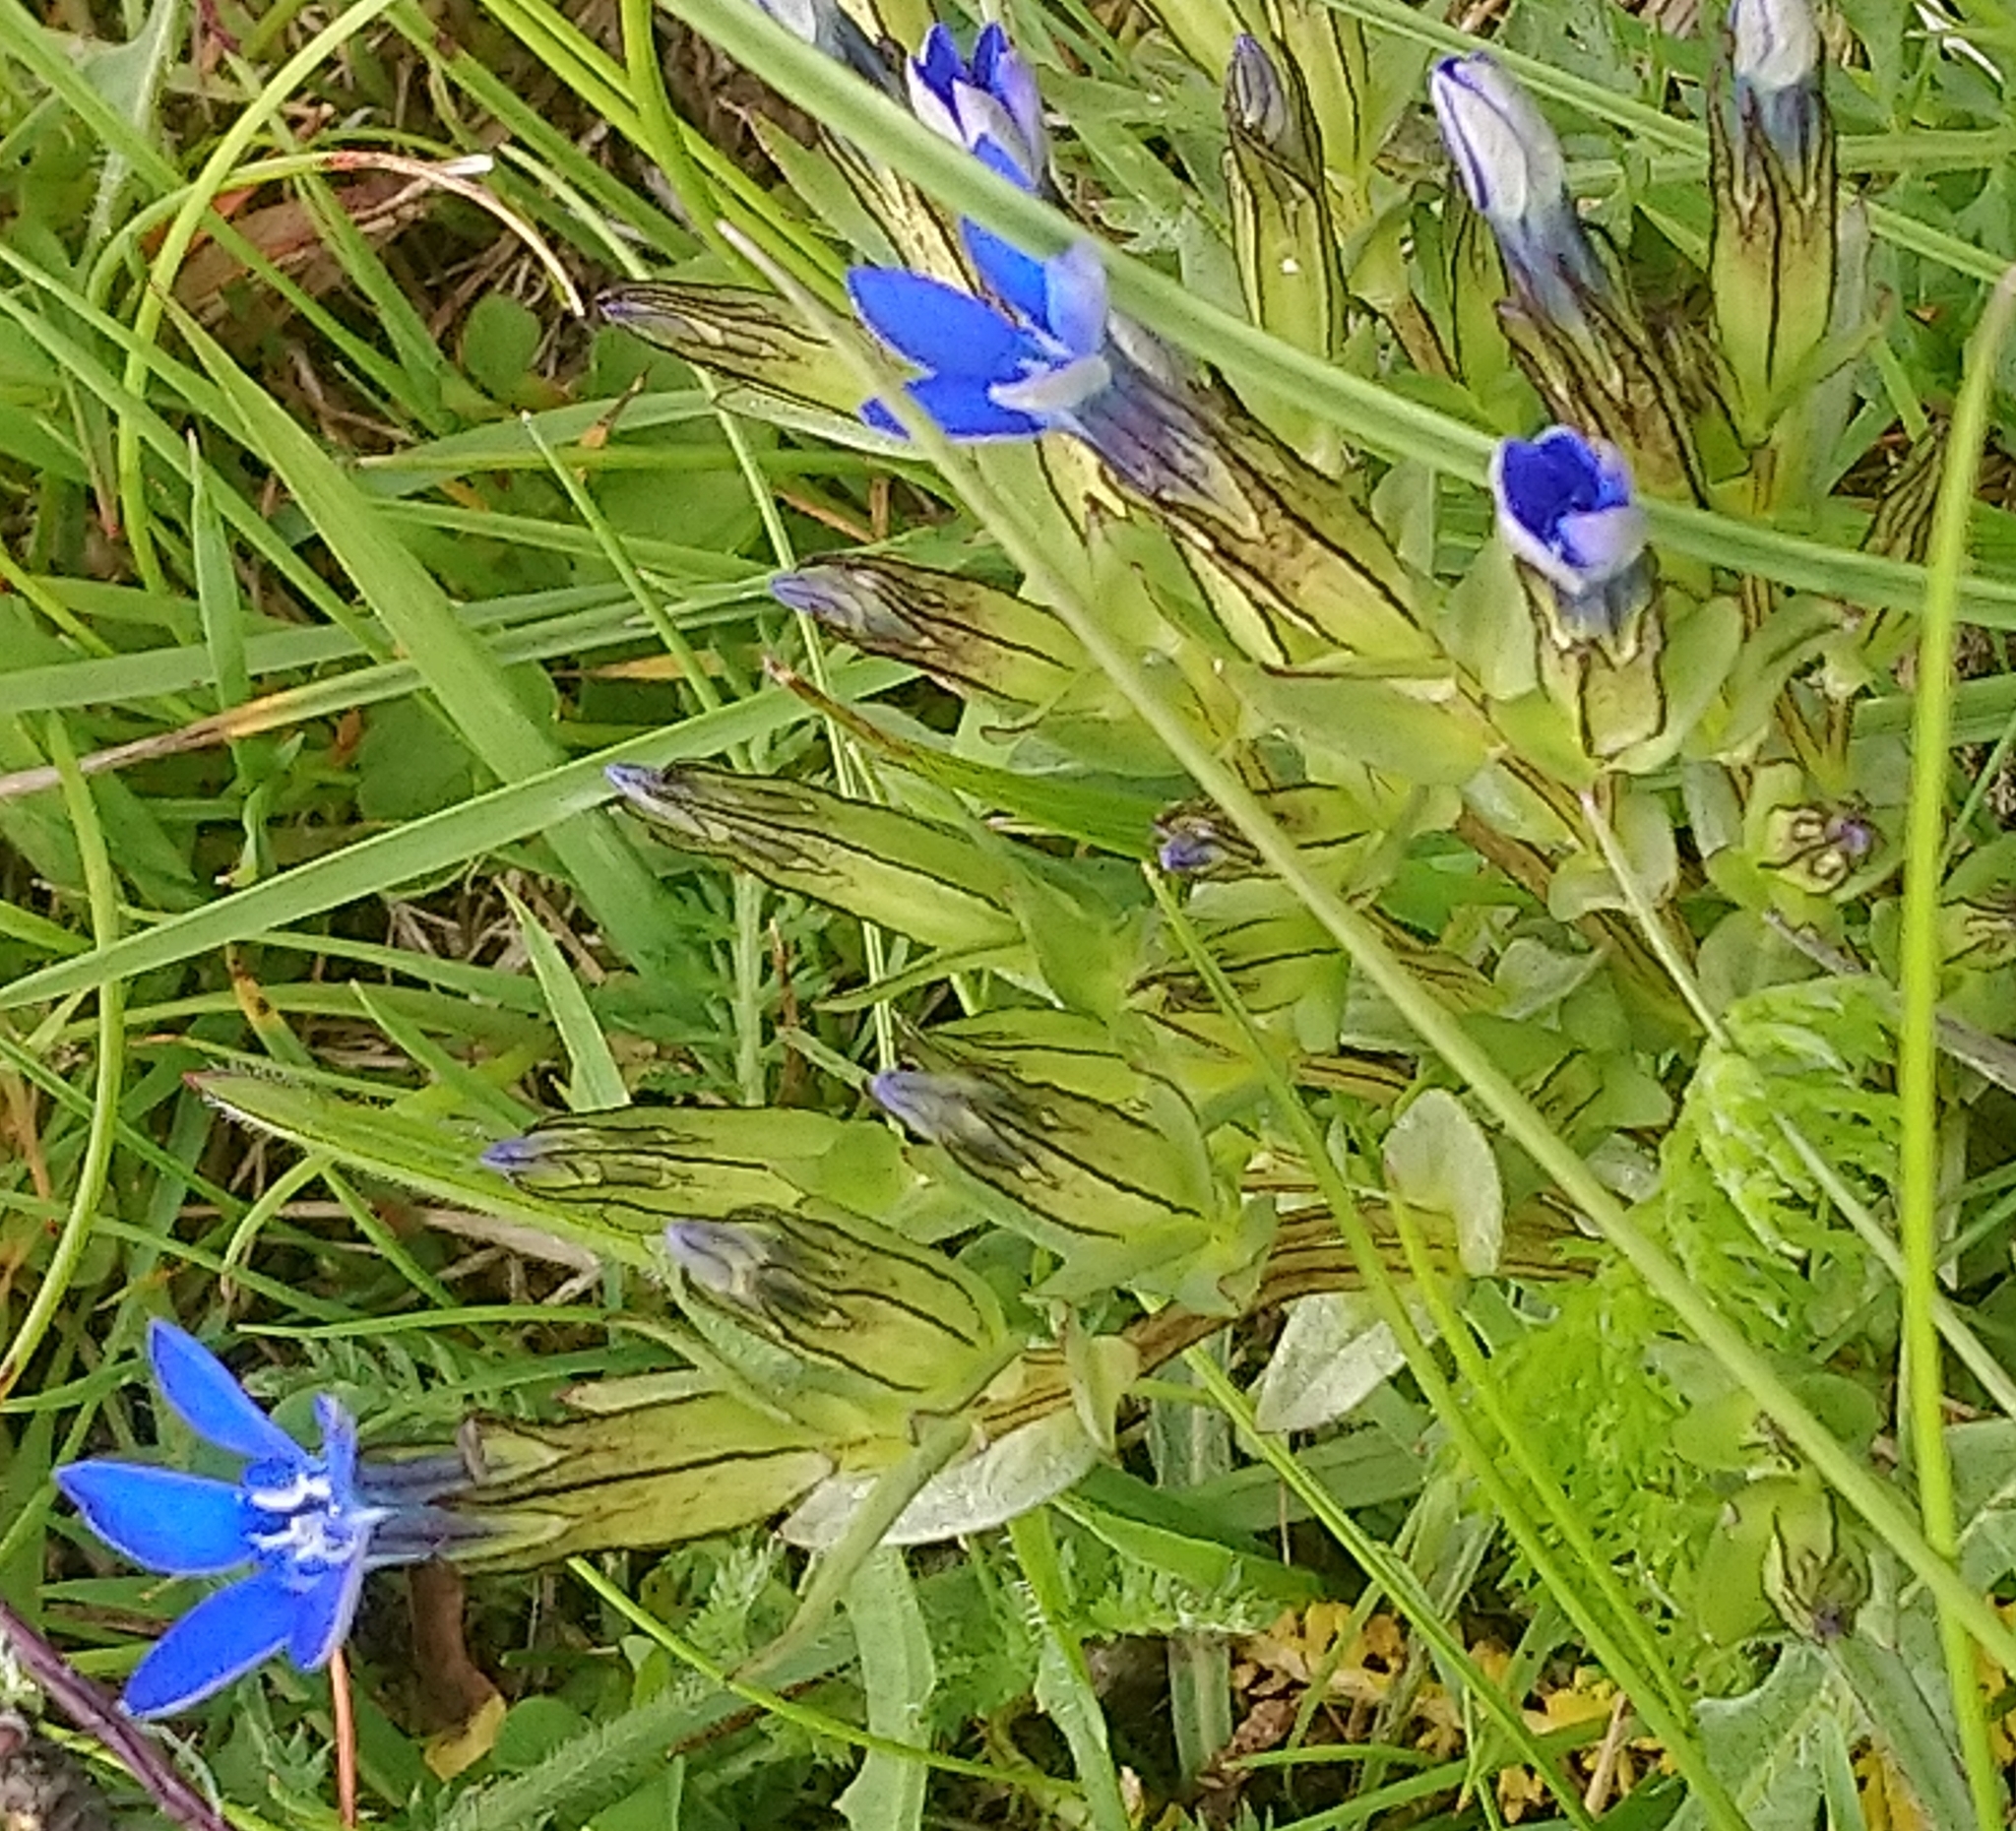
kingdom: Plantae
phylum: Tracheophyta
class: Magnoliopsida
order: Gentianales
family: Gentianaceae
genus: Gentiana
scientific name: Gentiana nivalis
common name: Alpine gentian
